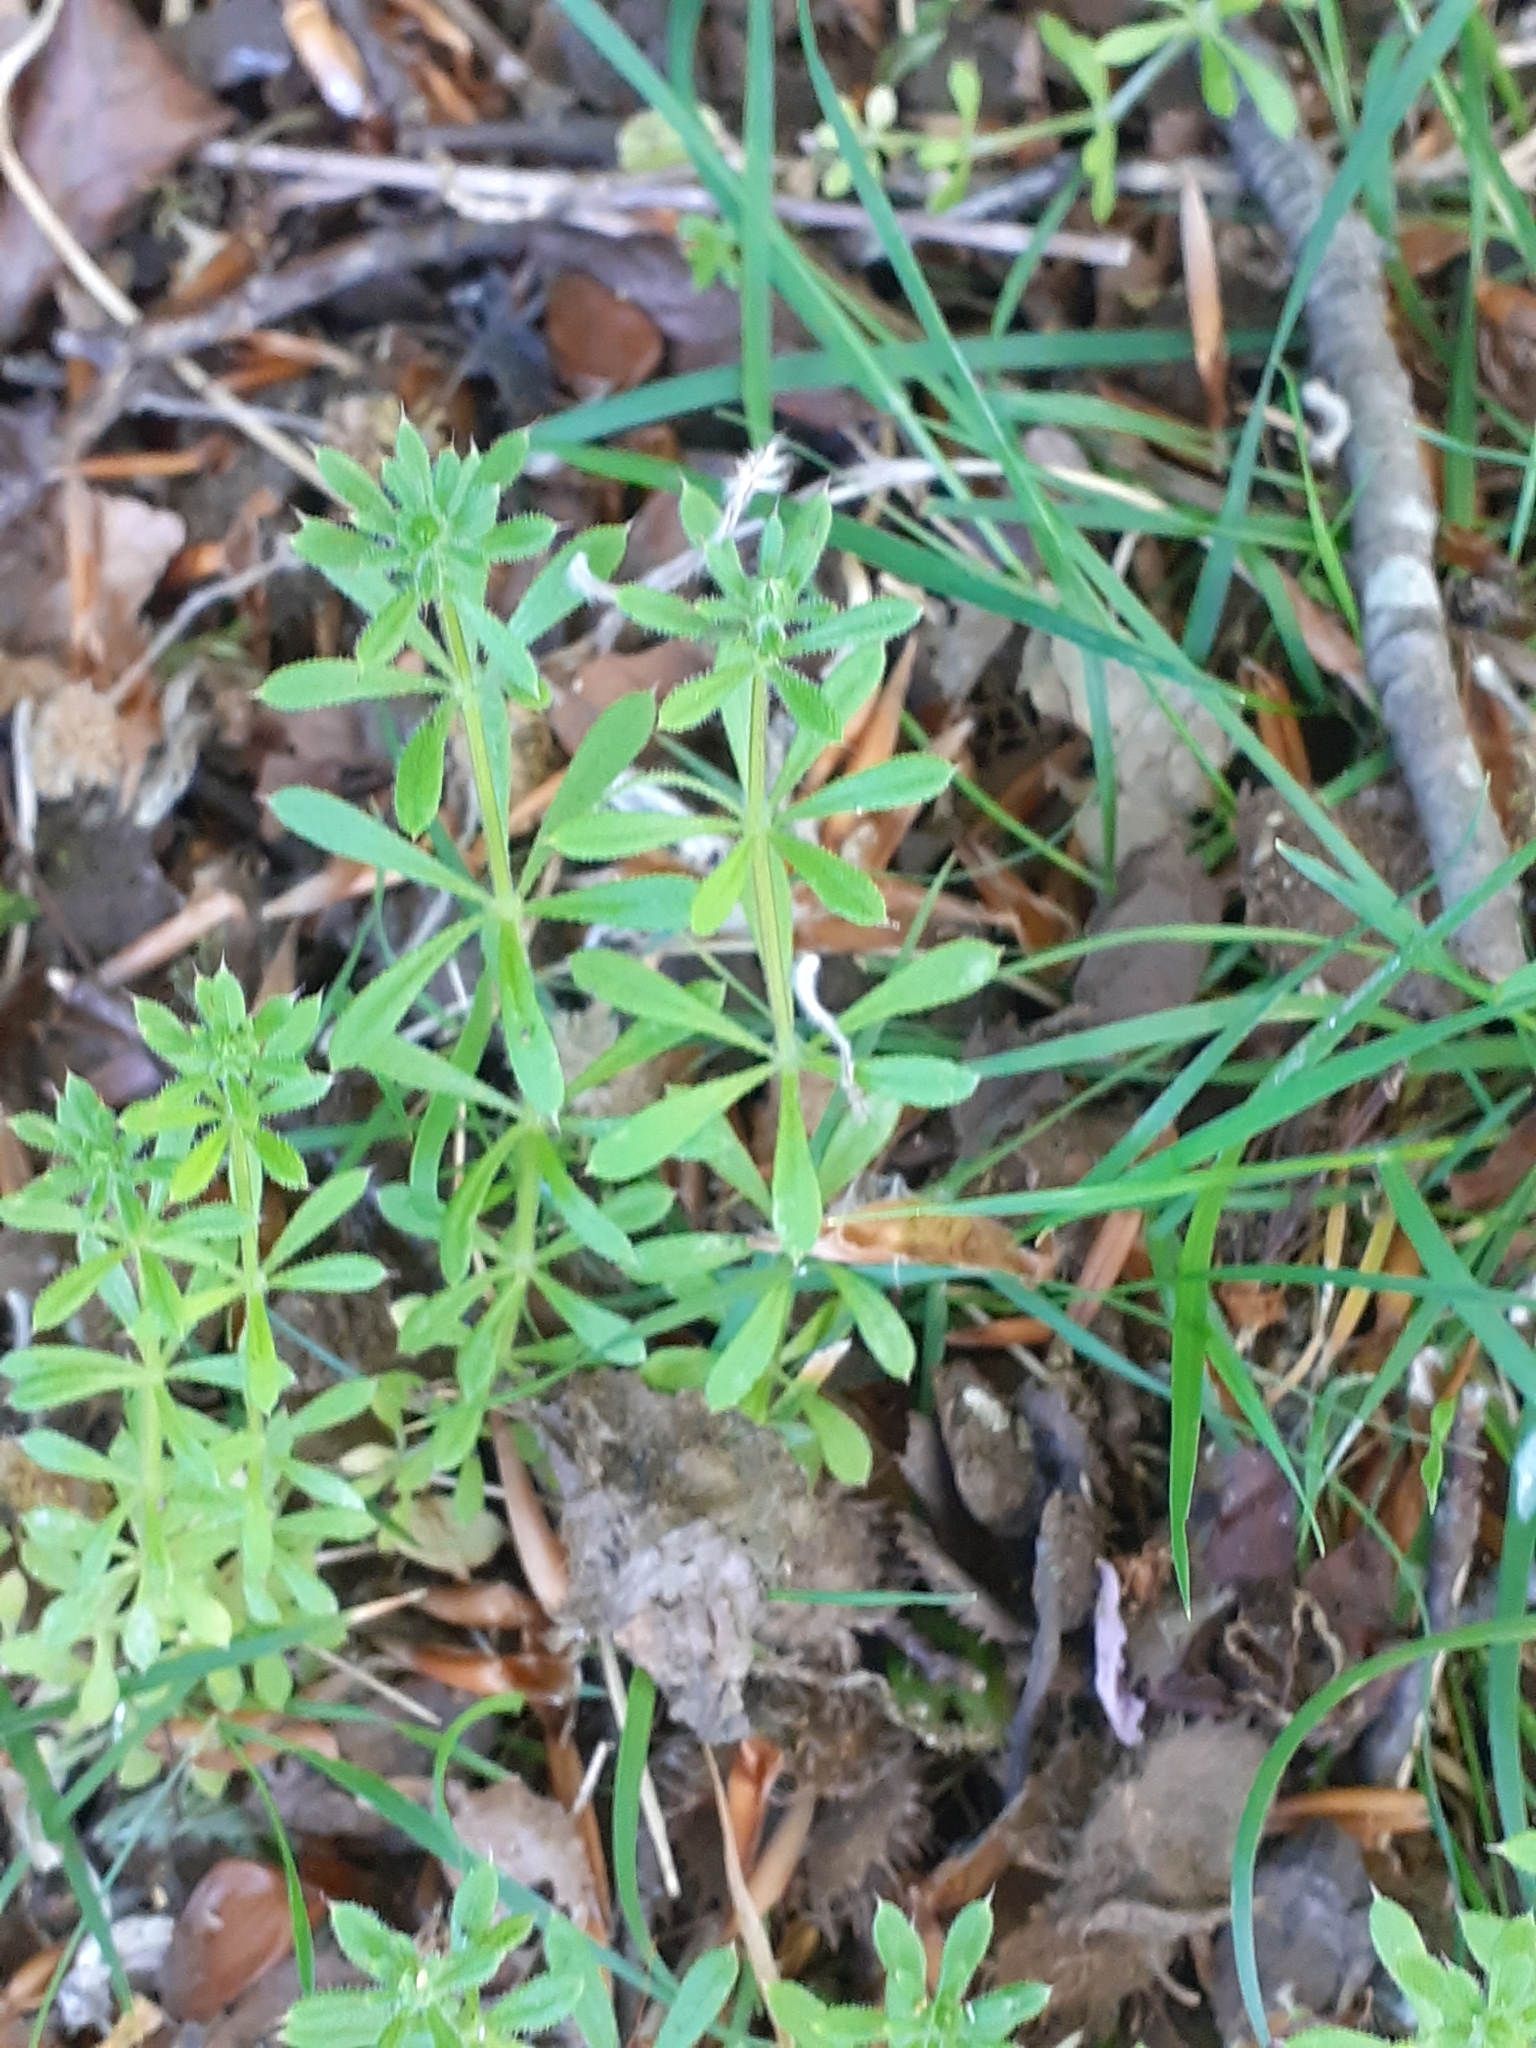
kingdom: Plantae
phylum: Tracheophyta
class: Magnoliopsida
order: Gentianales
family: Rubiaceae
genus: Galium
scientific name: Galium aparine
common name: Cleavers
